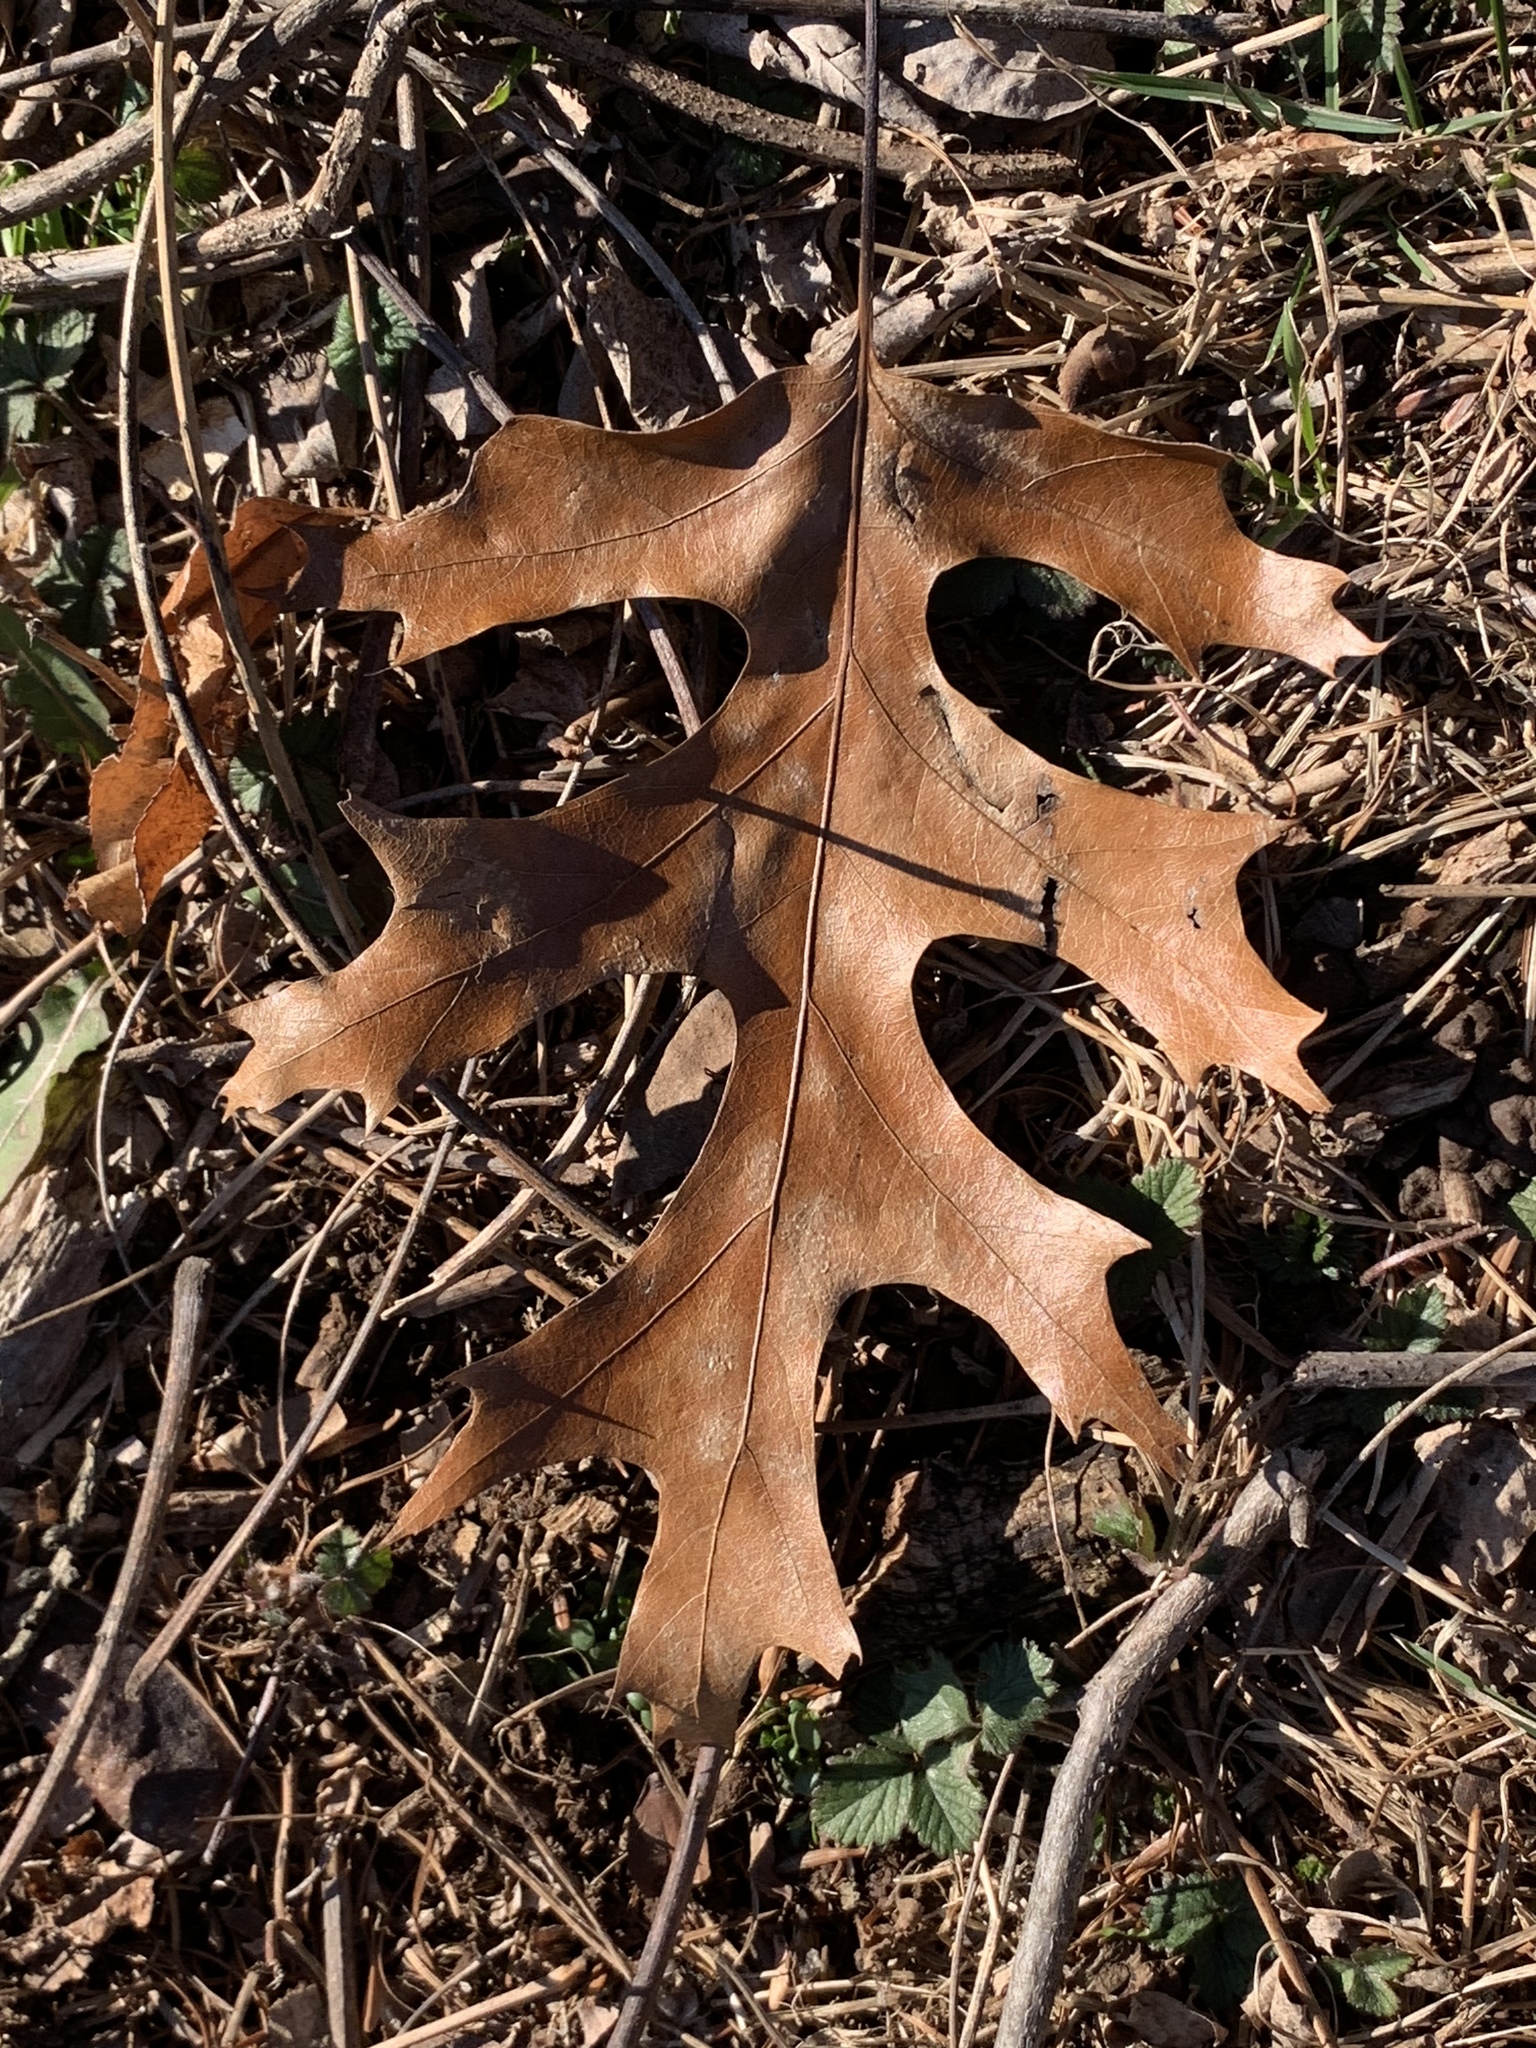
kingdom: Plantae
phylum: Tracheophyta
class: Magnoliopsida
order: Fagales
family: Fagaceae
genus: Quercus
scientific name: Quercus coccinea
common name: Scarlet oak
